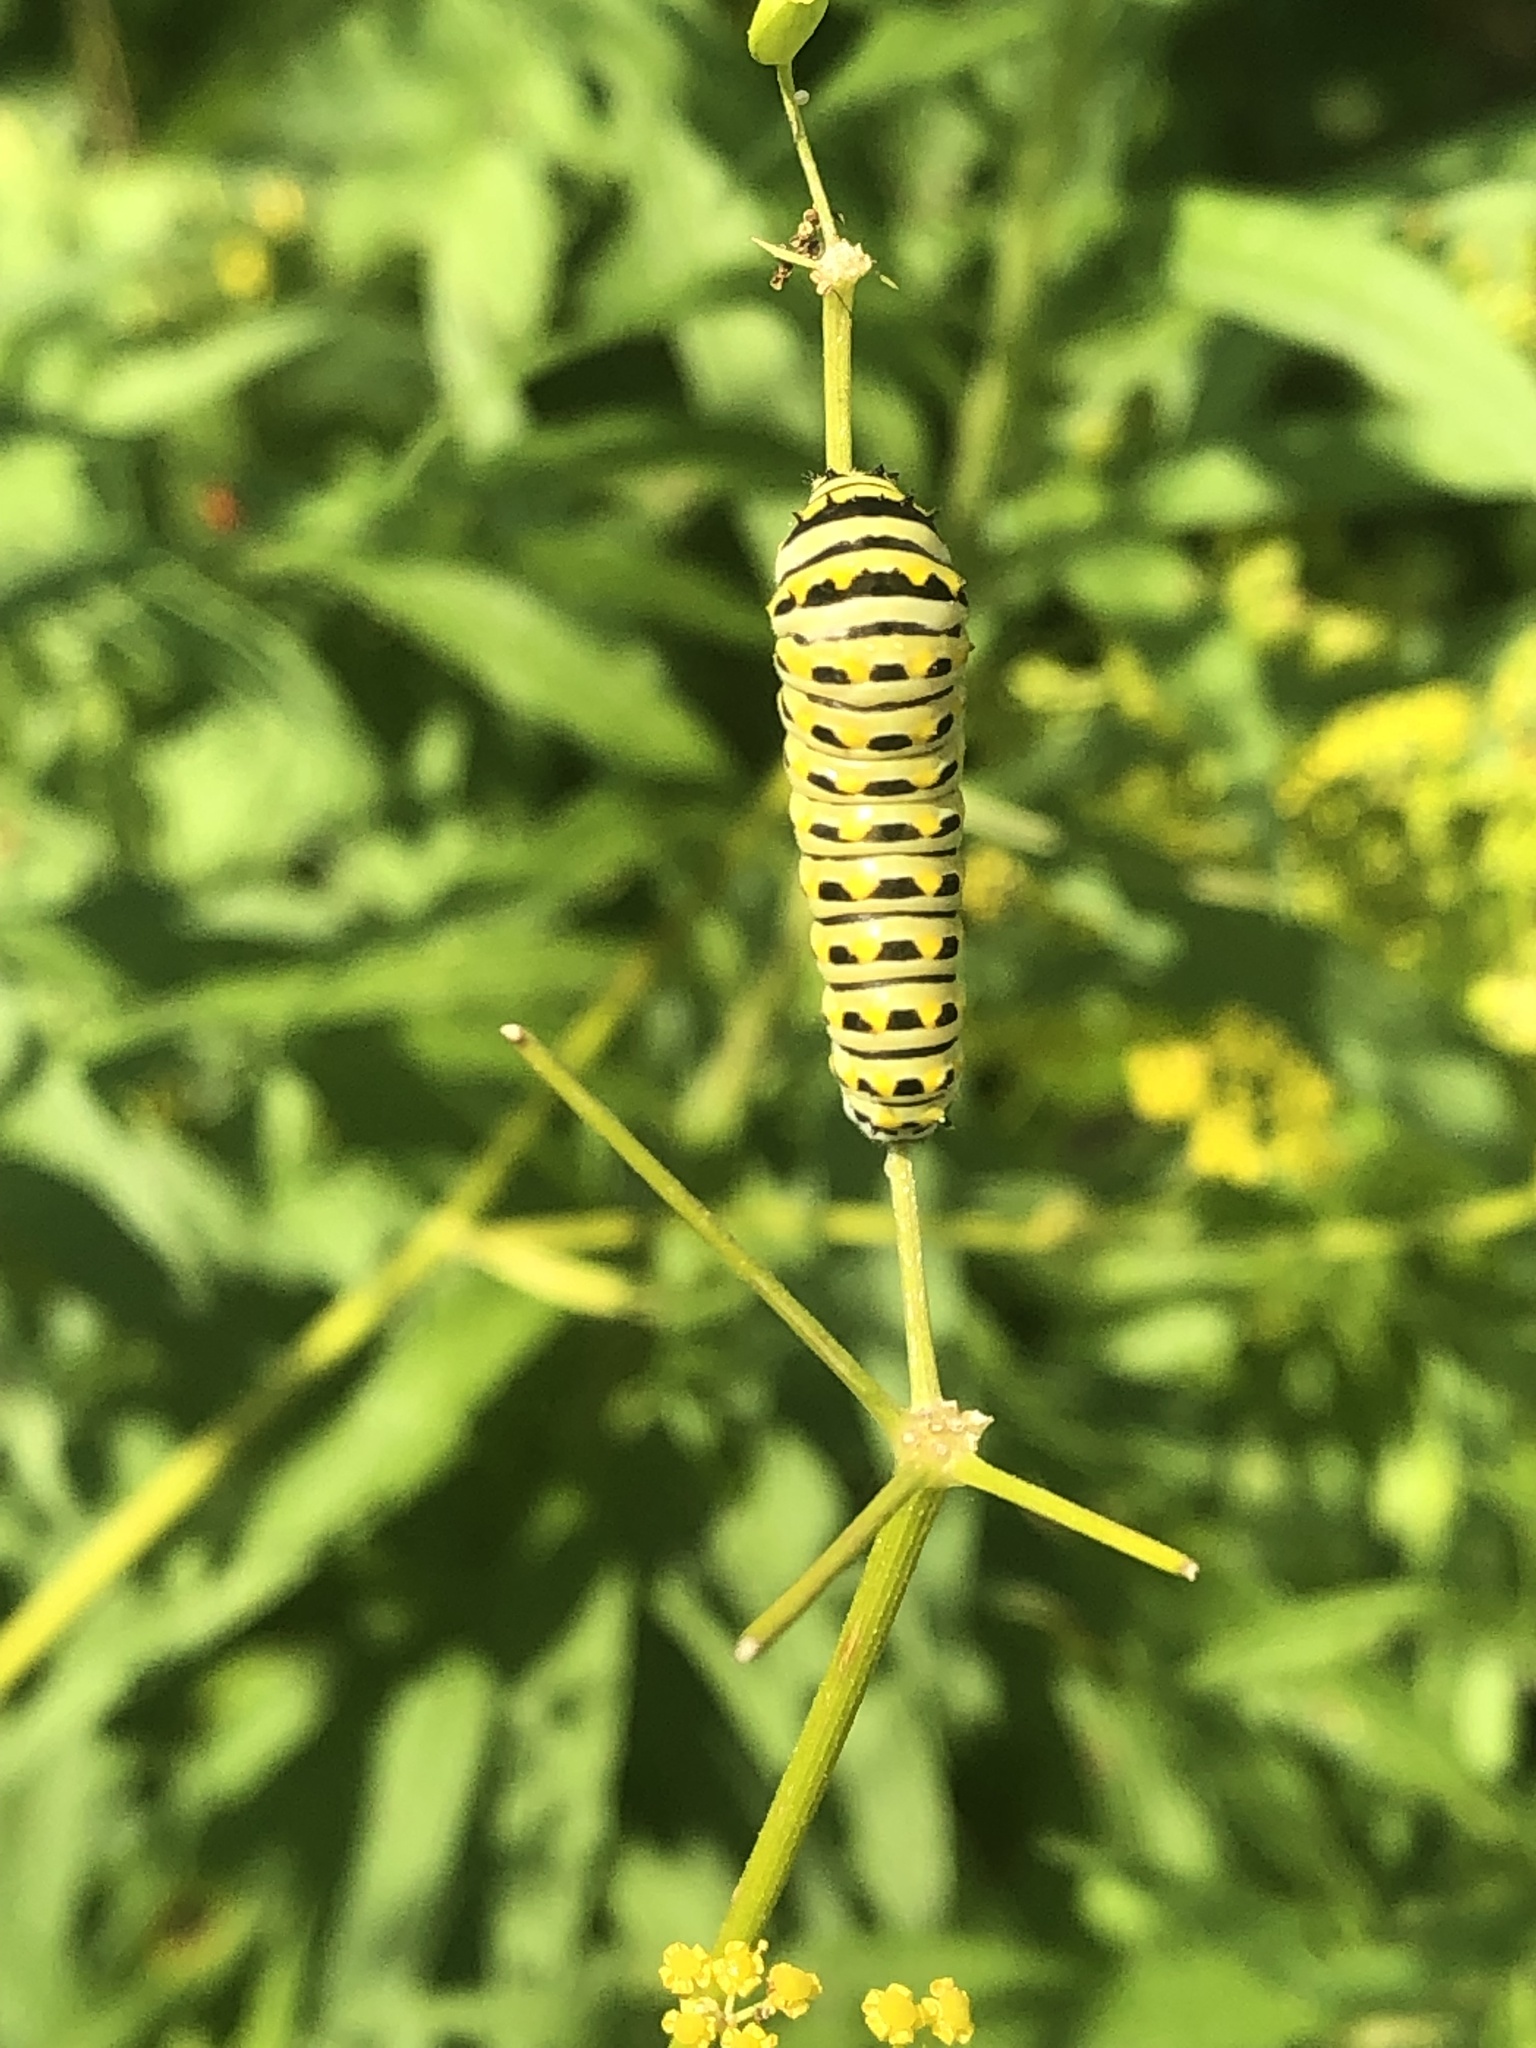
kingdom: Animalia
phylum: Arthropoda
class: Insecta
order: Lepidoptera
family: Papilionidae
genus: Papilio
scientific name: Papilio polyxenes
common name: Black swallowtail
